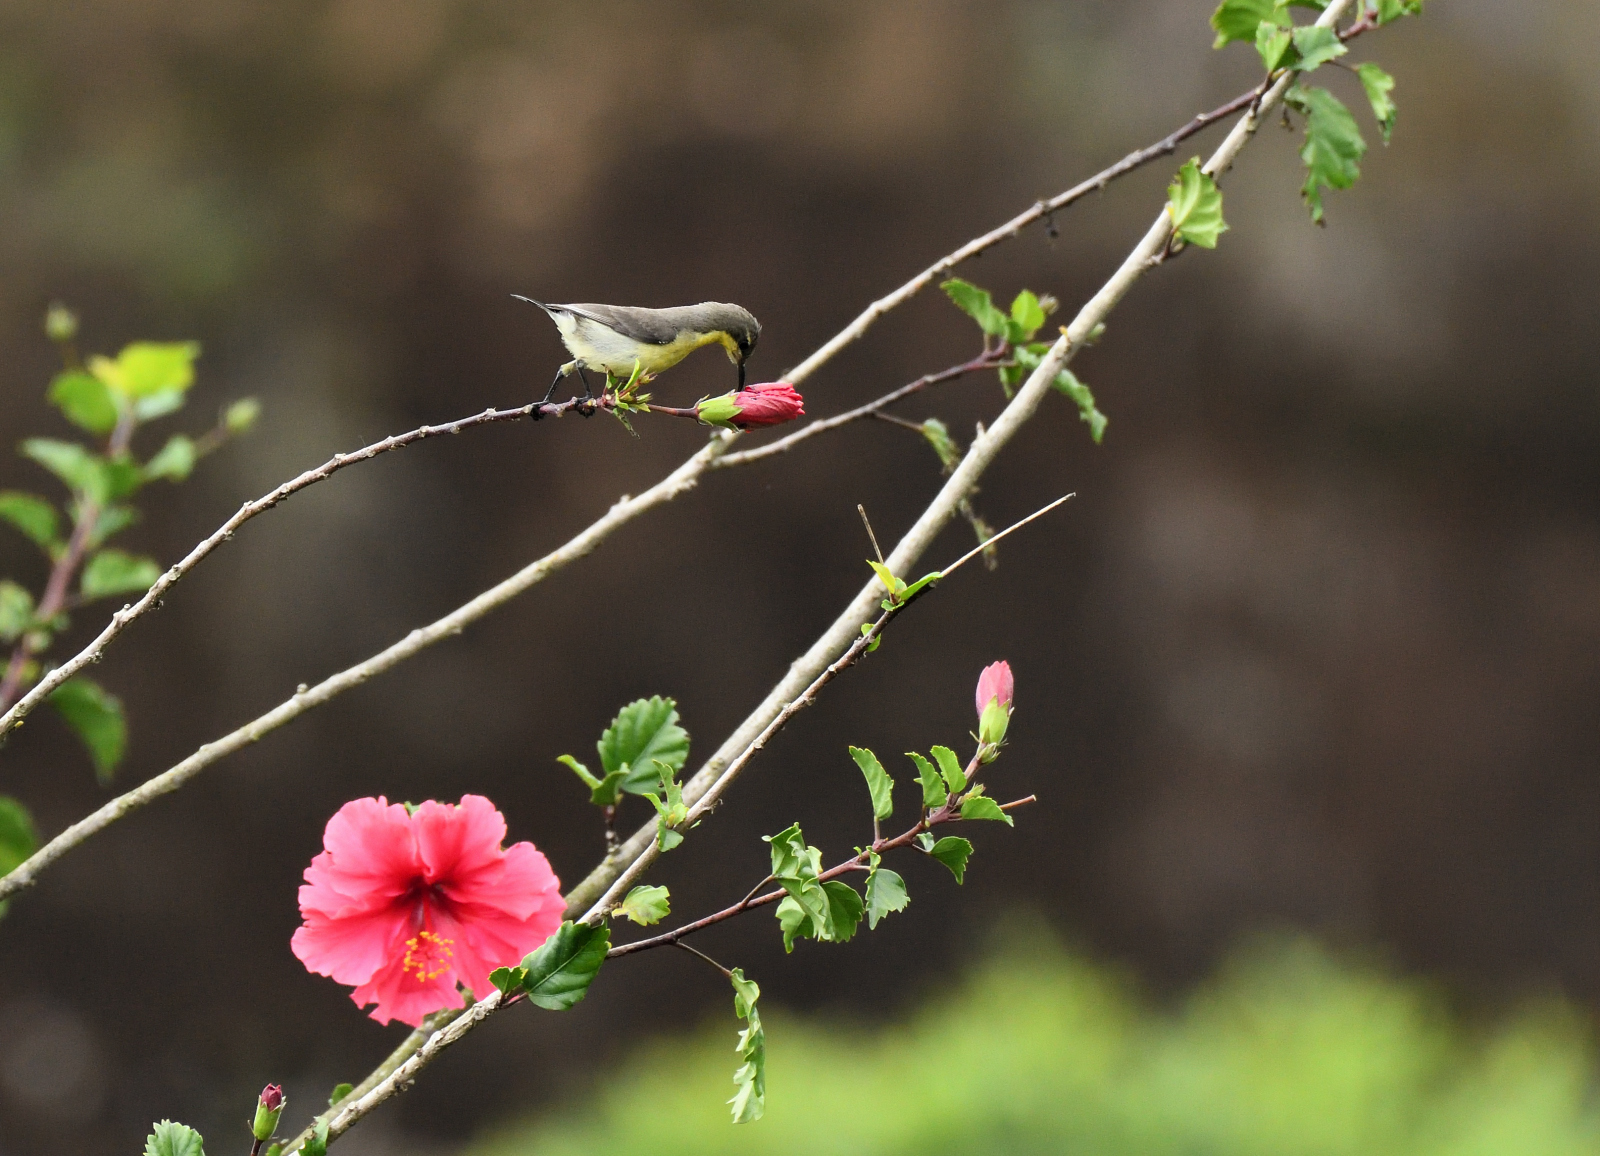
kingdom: Animalia
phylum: Chordata
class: Aves
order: Passeriformes
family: Nectariniidae
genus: Cinnyris
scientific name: Cinnyris asiaticus
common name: Purple sunbird
